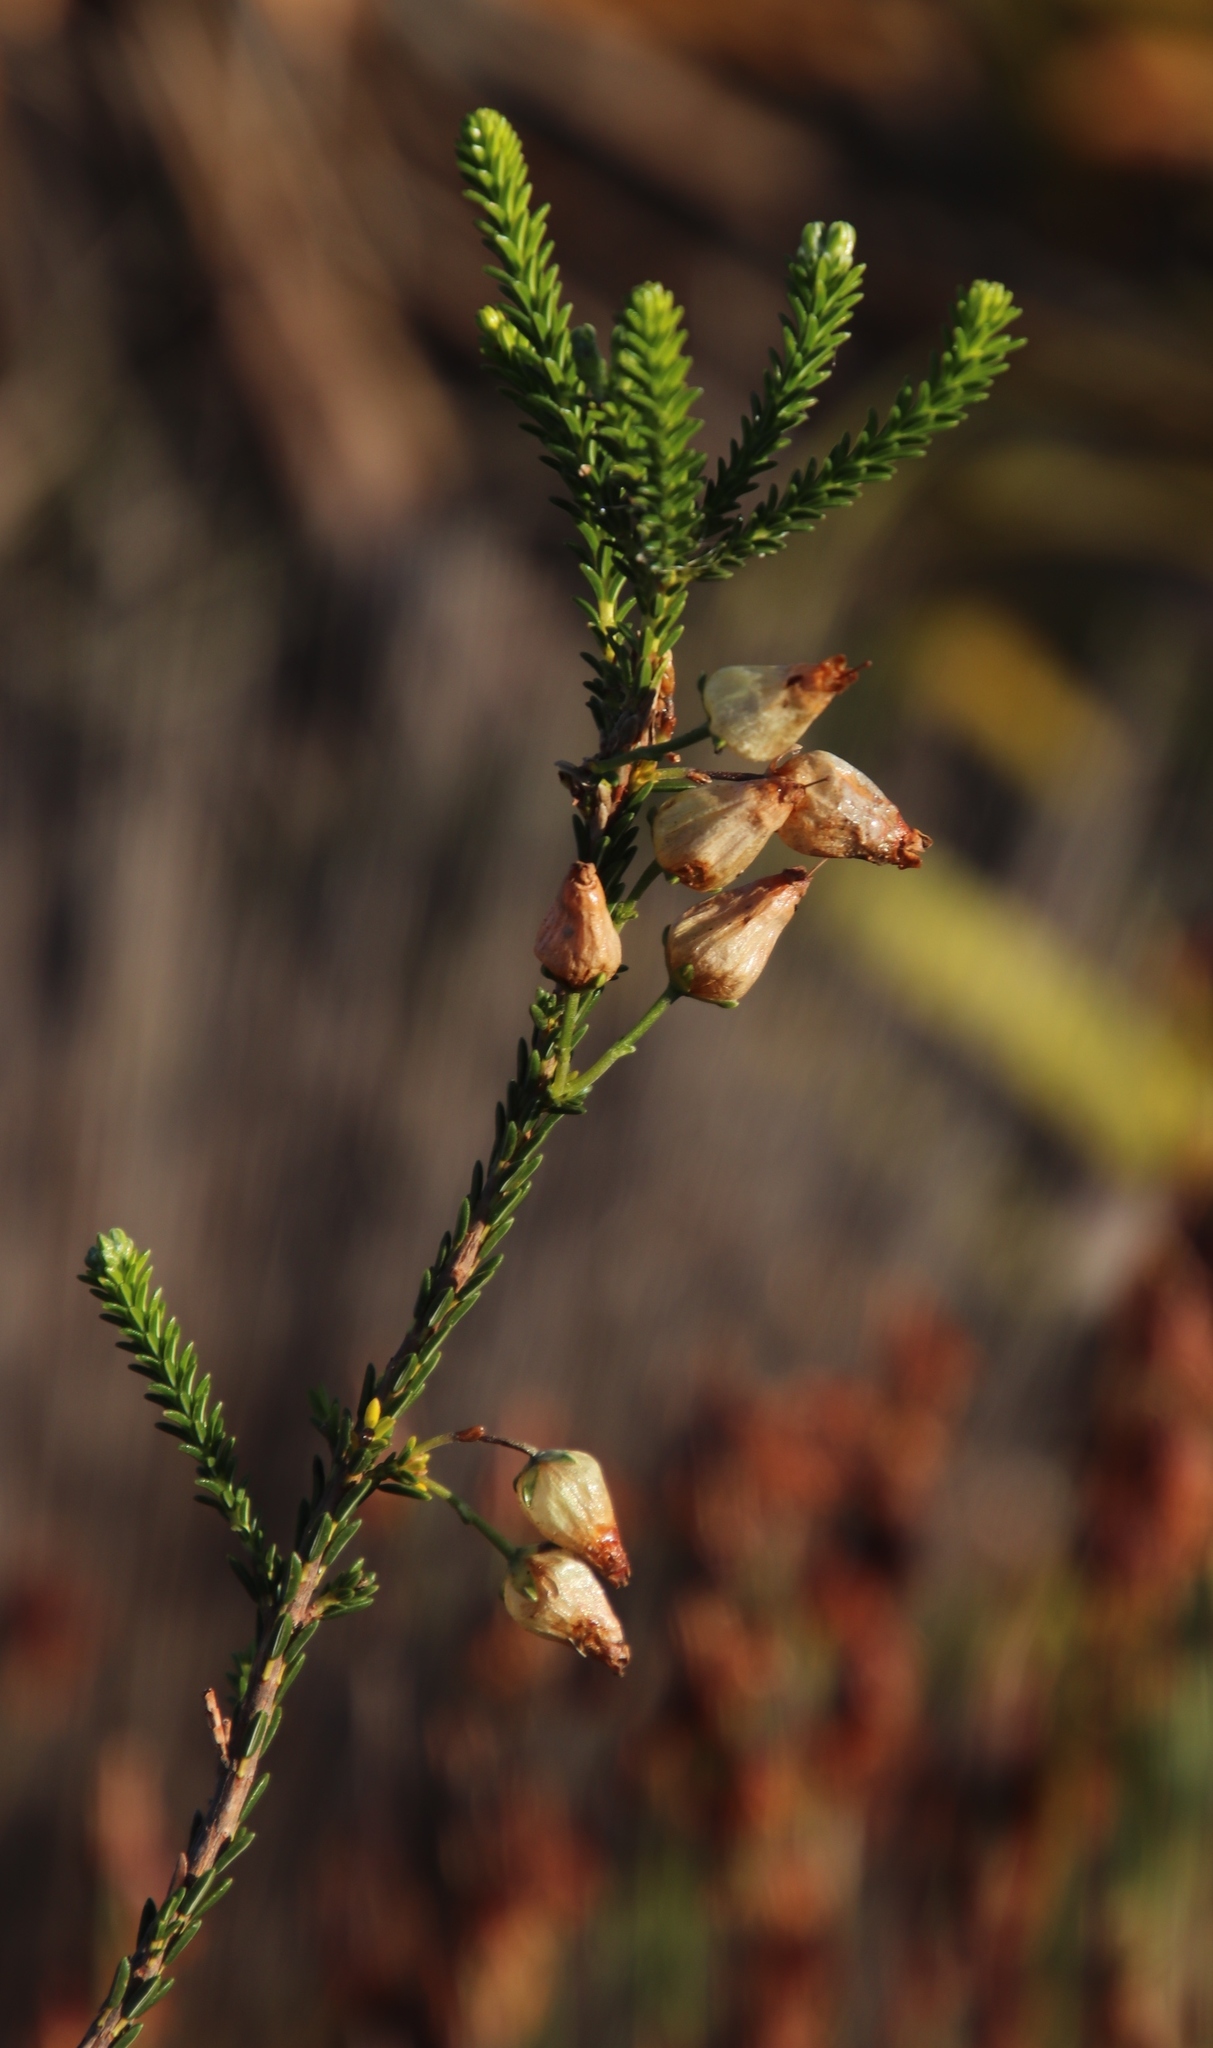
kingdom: Plantae
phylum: Tracheophyta
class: Magnoliopsida
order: Ericales
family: Ericaceae
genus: Erica
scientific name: Erica urna-viridis
